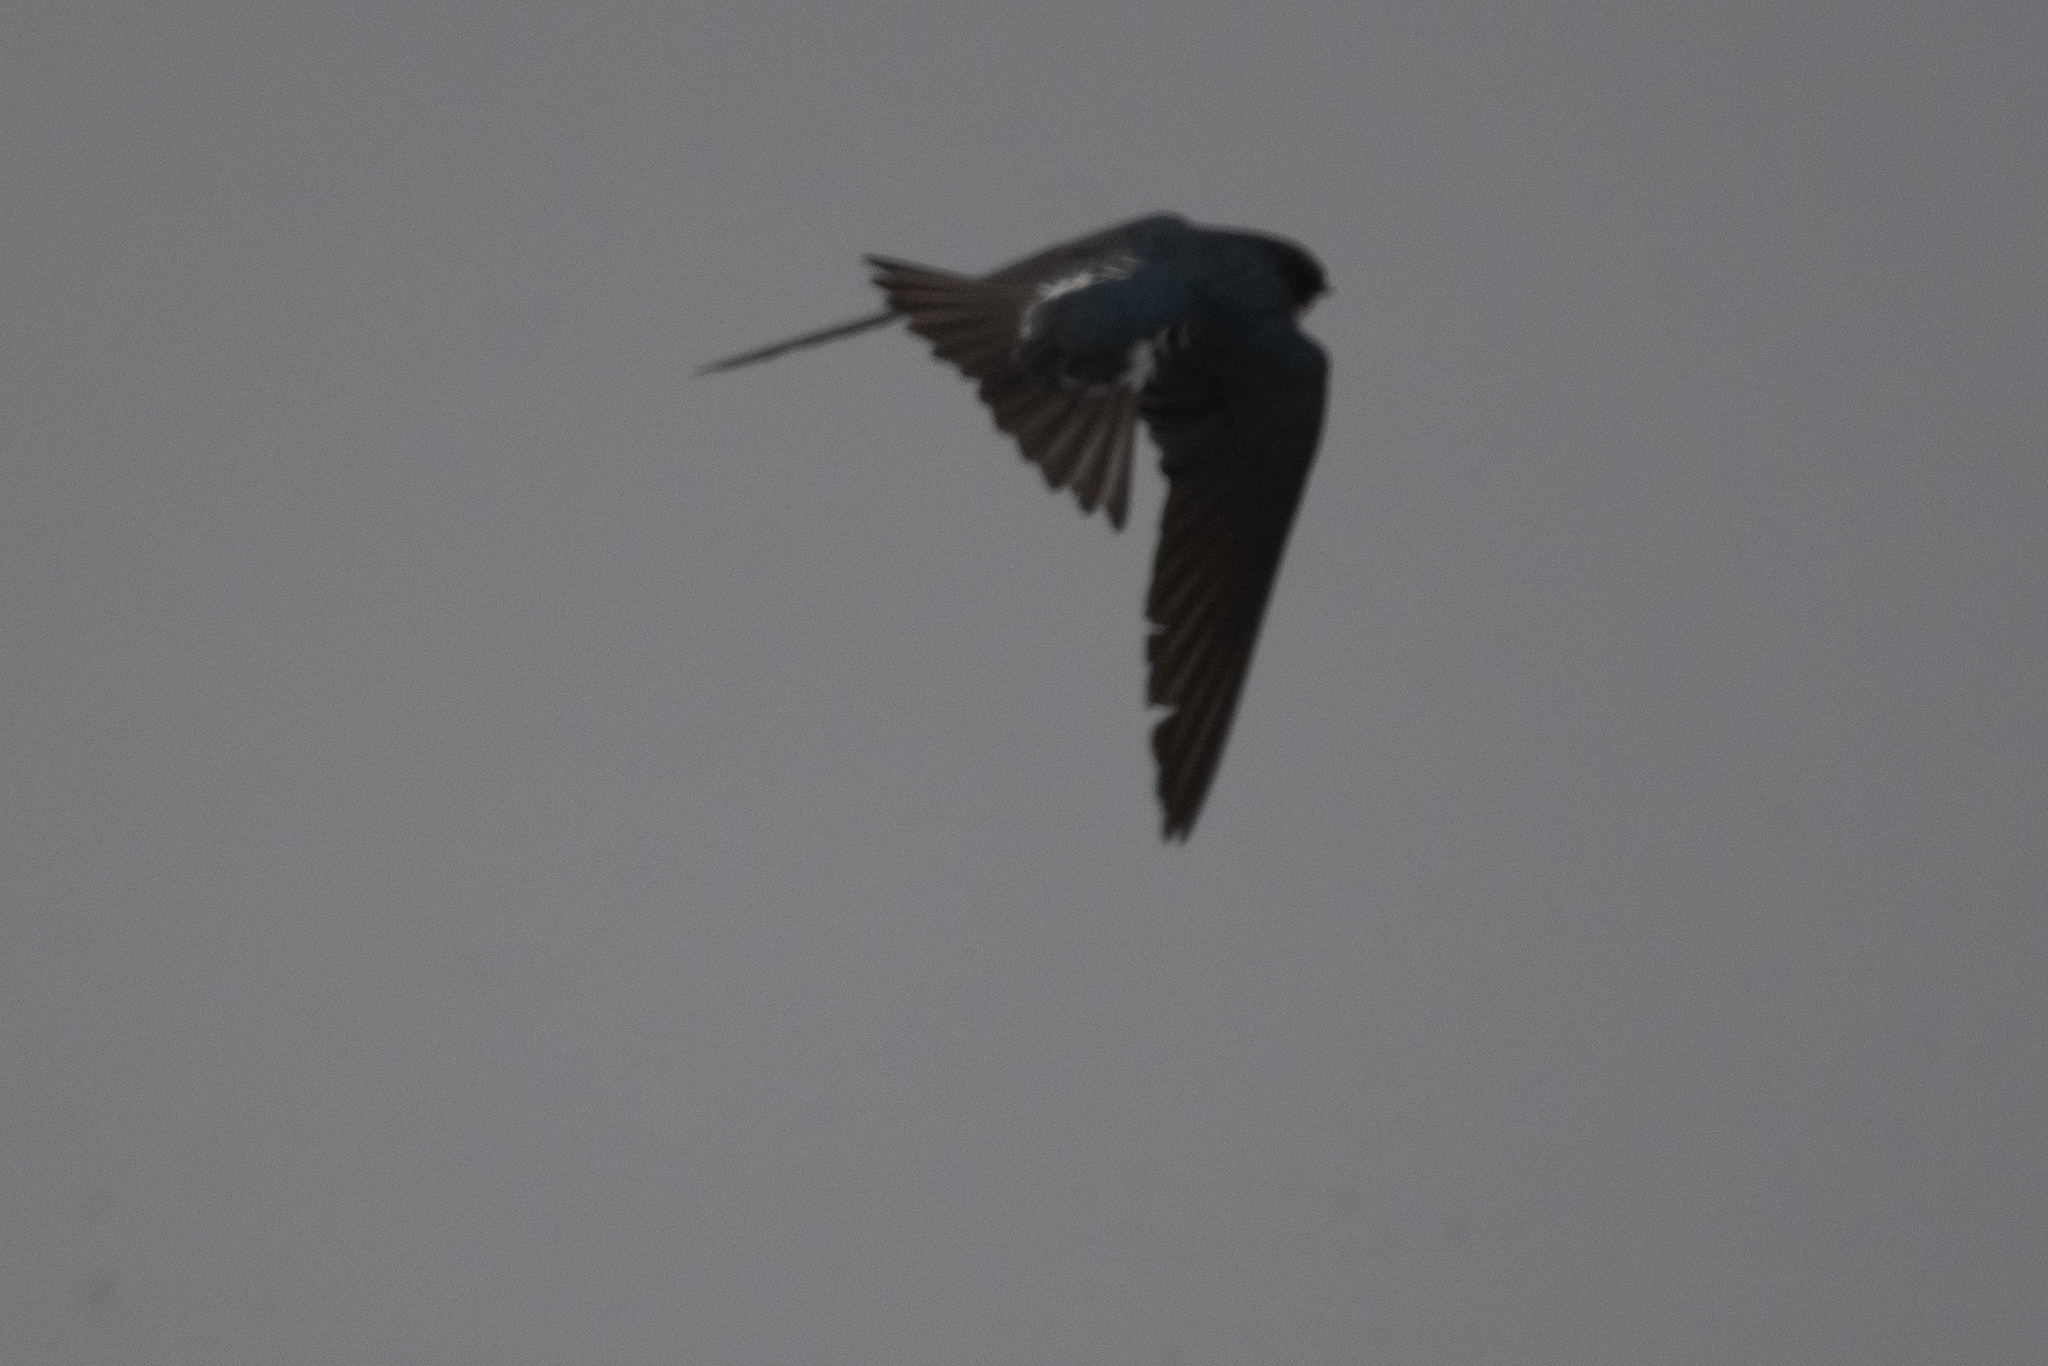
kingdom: Animalia
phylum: Chordata
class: Aves
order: Passeriformes
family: Hirundinidae
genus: Tachycineta
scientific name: Tachycineta bicolor
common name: Tree swallow
